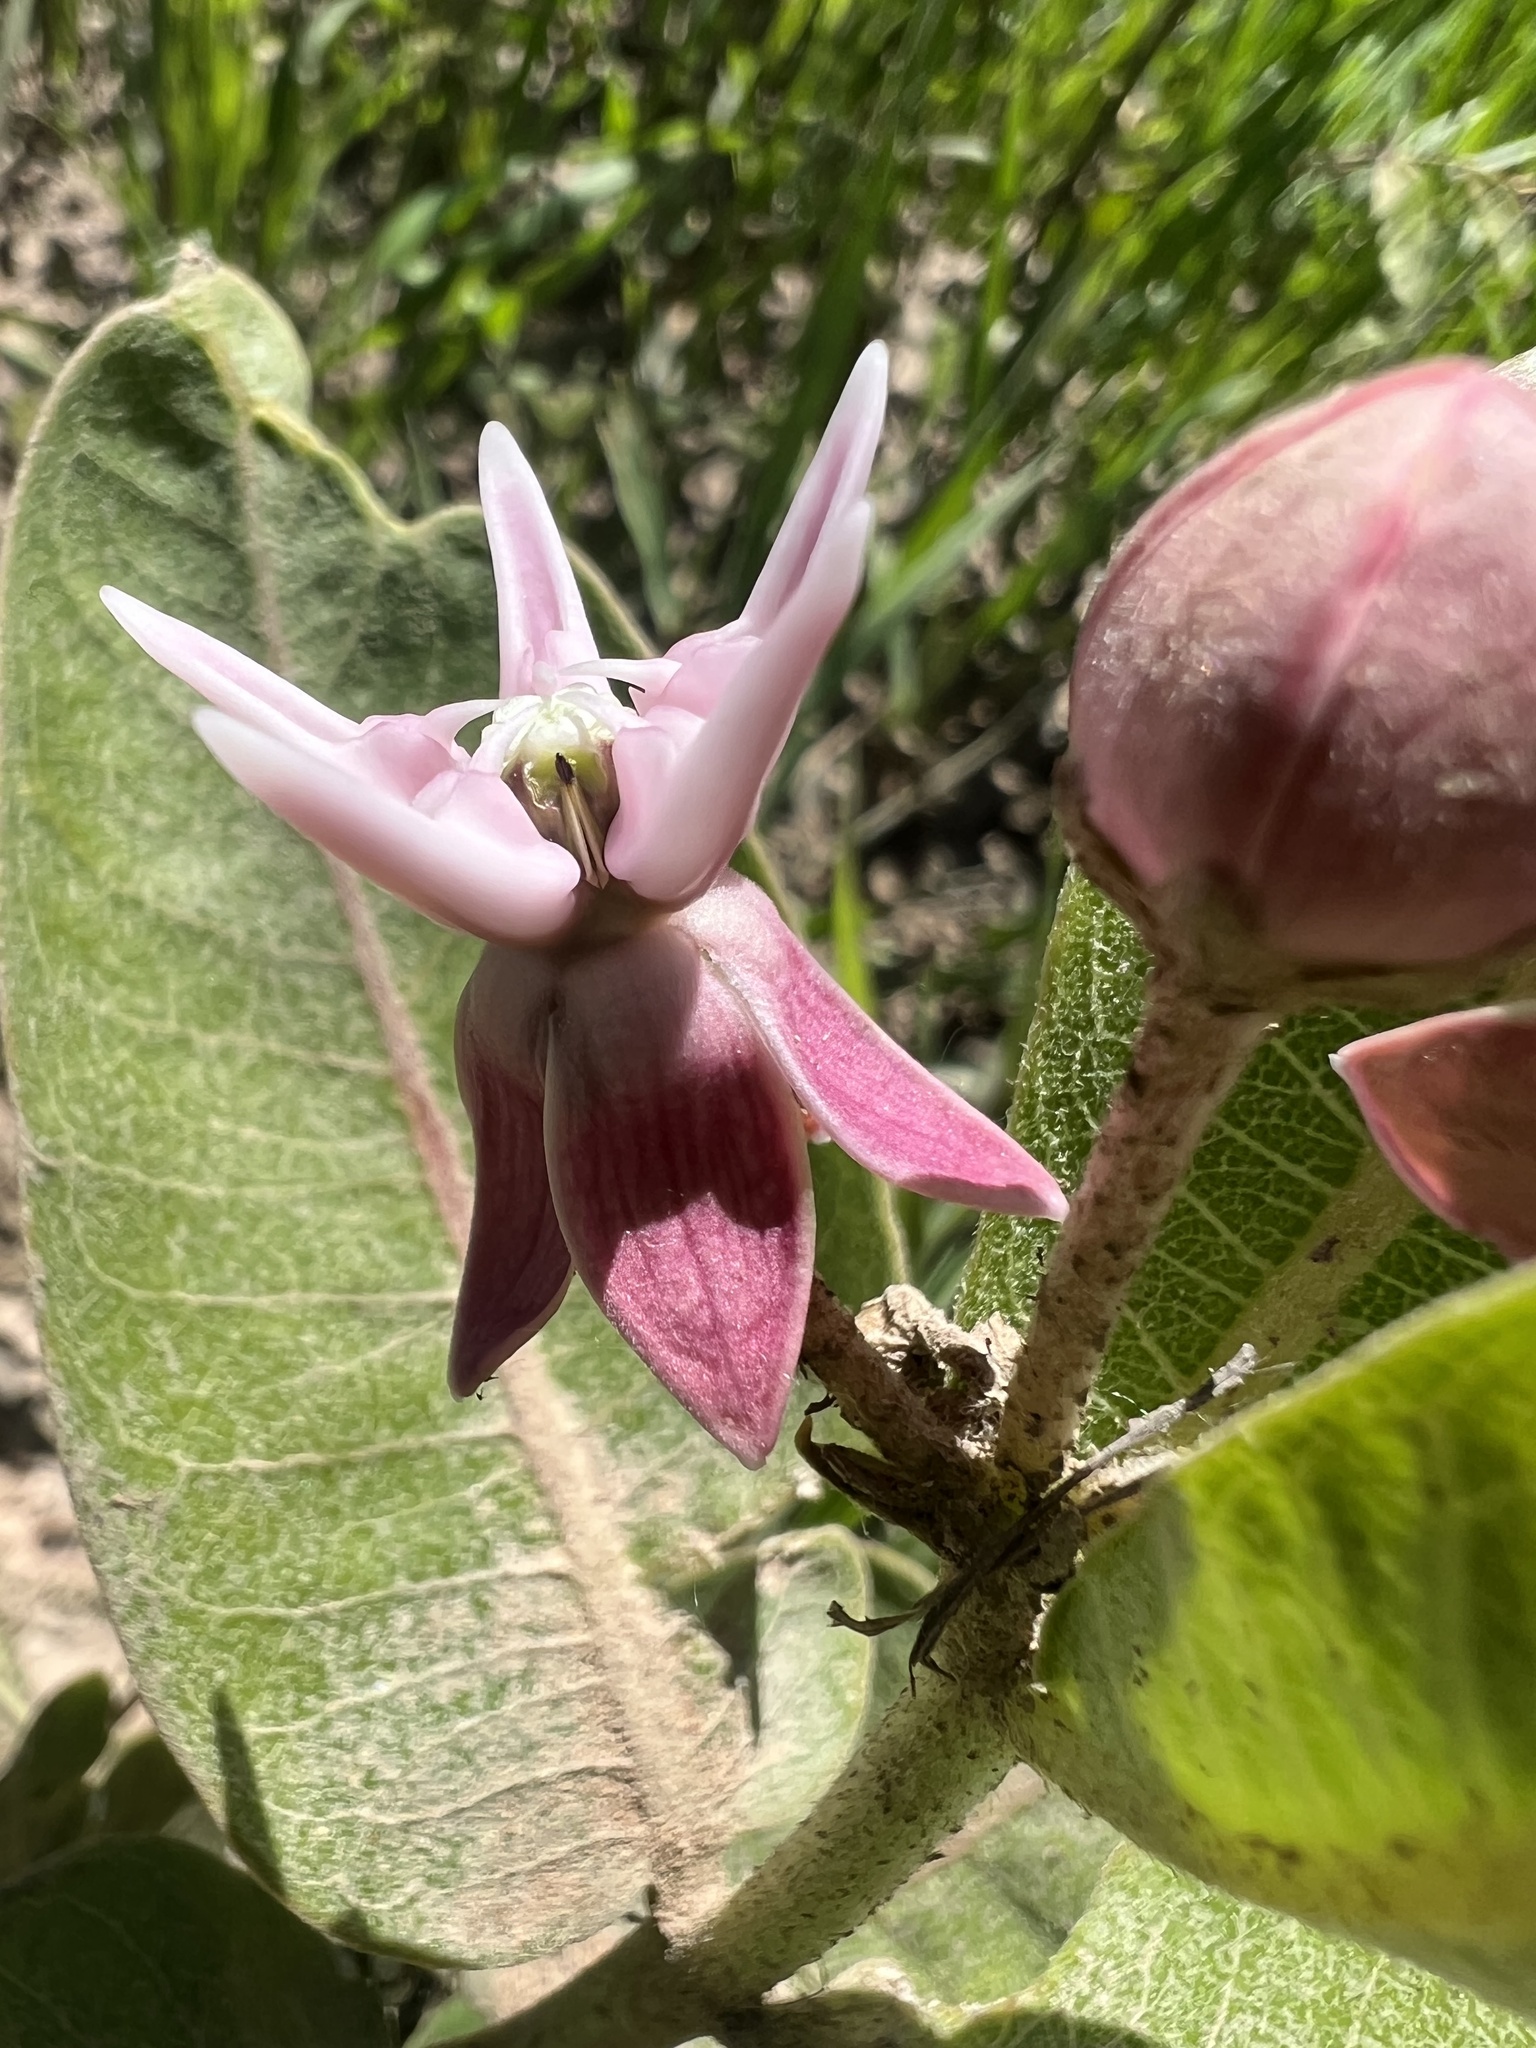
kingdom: Plantae
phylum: Tracheophyta
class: Magnoliopsida
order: Gentianales
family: Apocynaceae
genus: Asclepias
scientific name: Asclepias speciosa
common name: Showy milkweed
